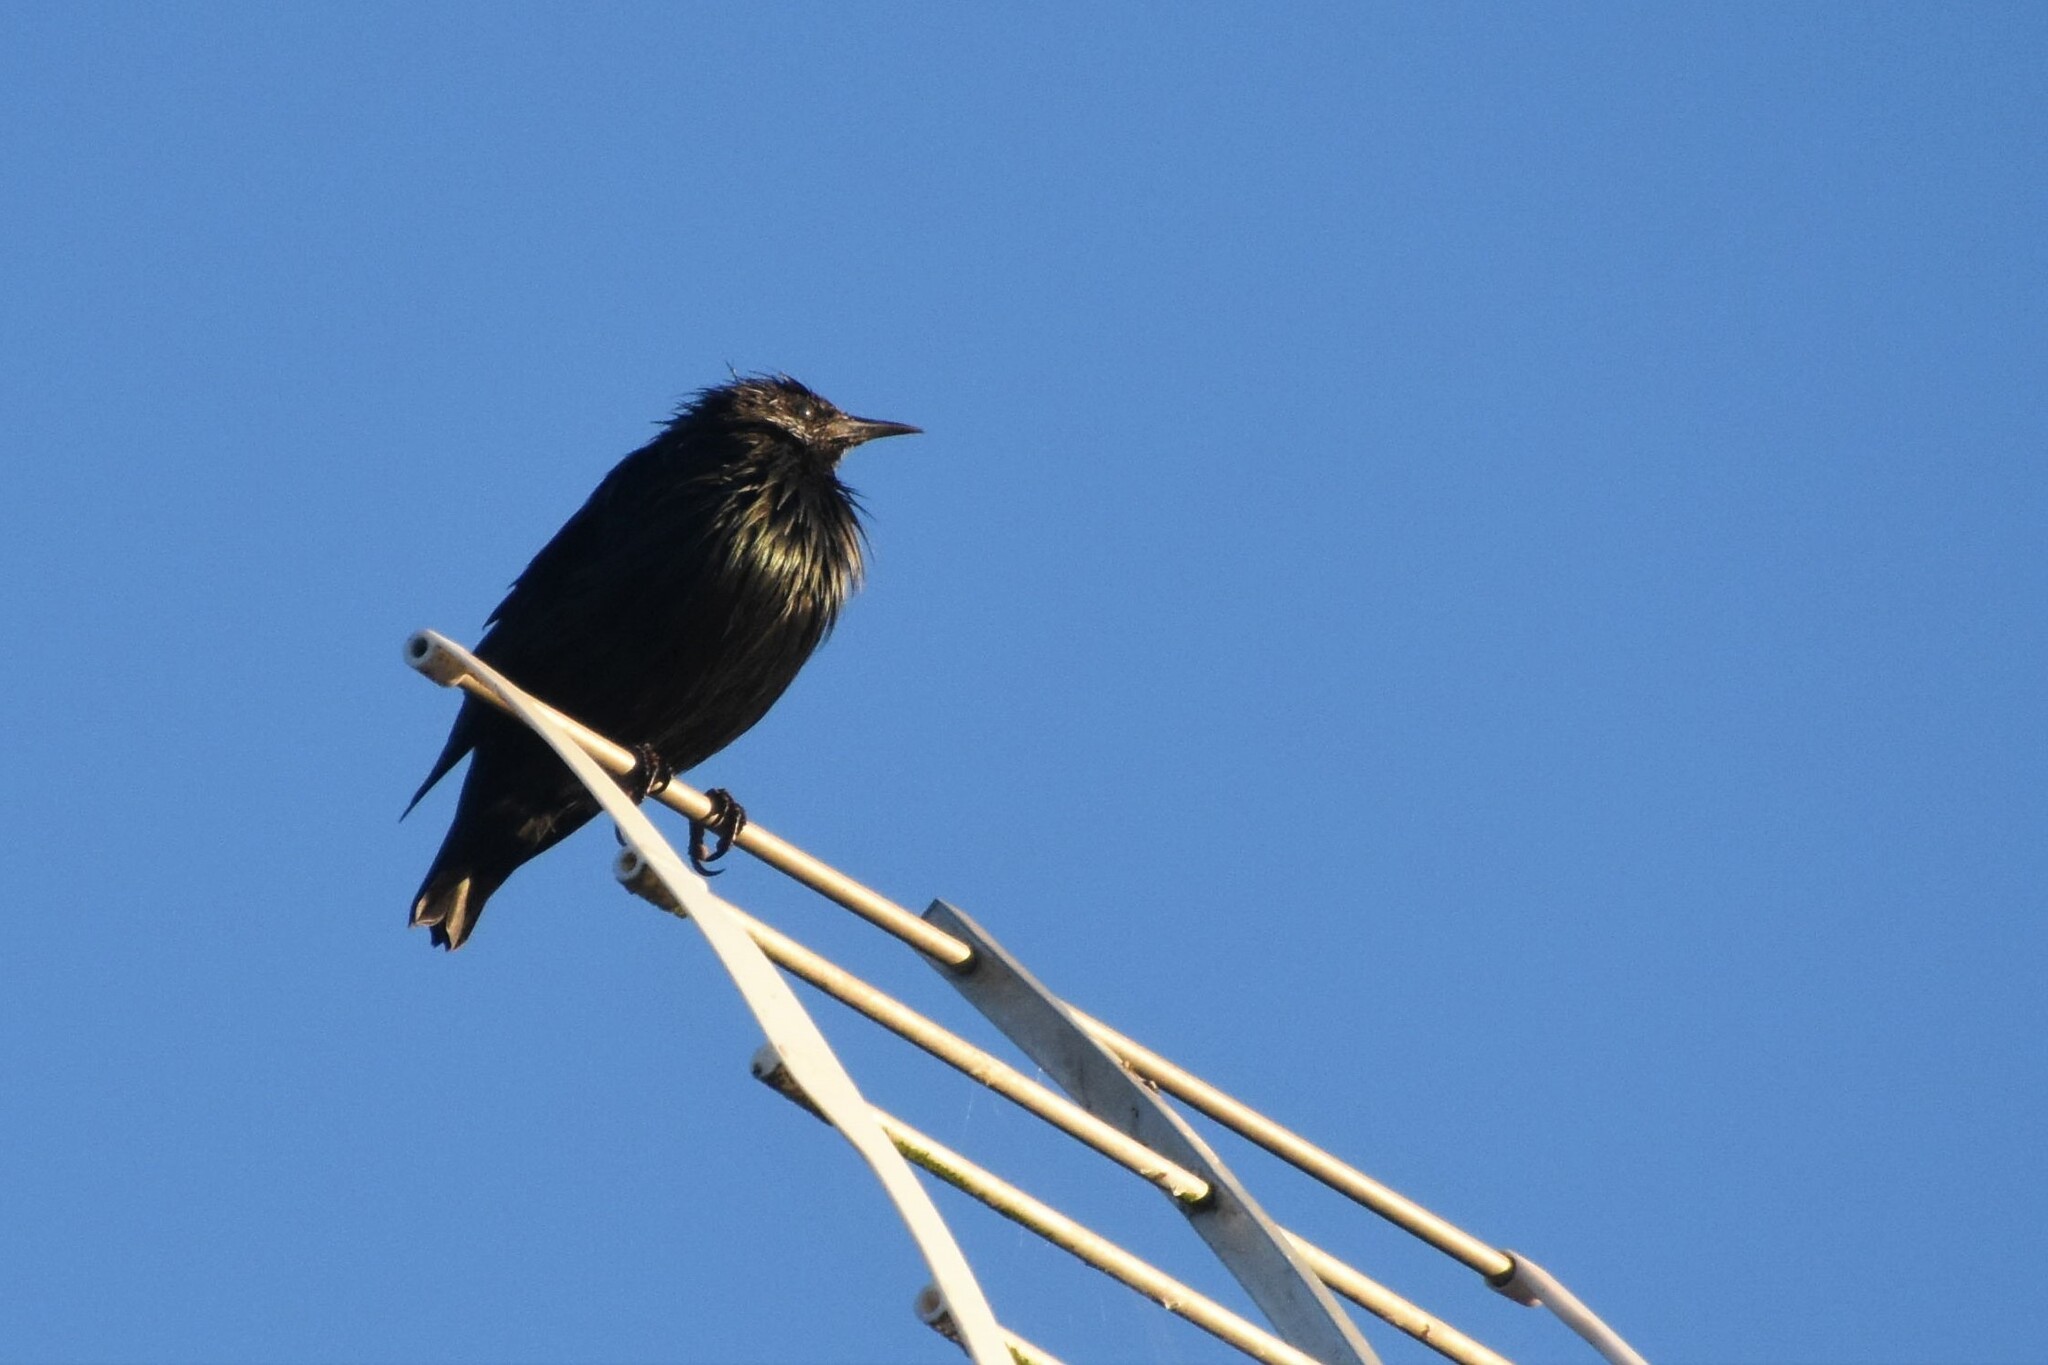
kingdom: Animalia
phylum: Chordata
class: Aves
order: Passeriformes
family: Sturnidae
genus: Sturnus
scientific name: Sturnus unicolor
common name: Spotless starling
